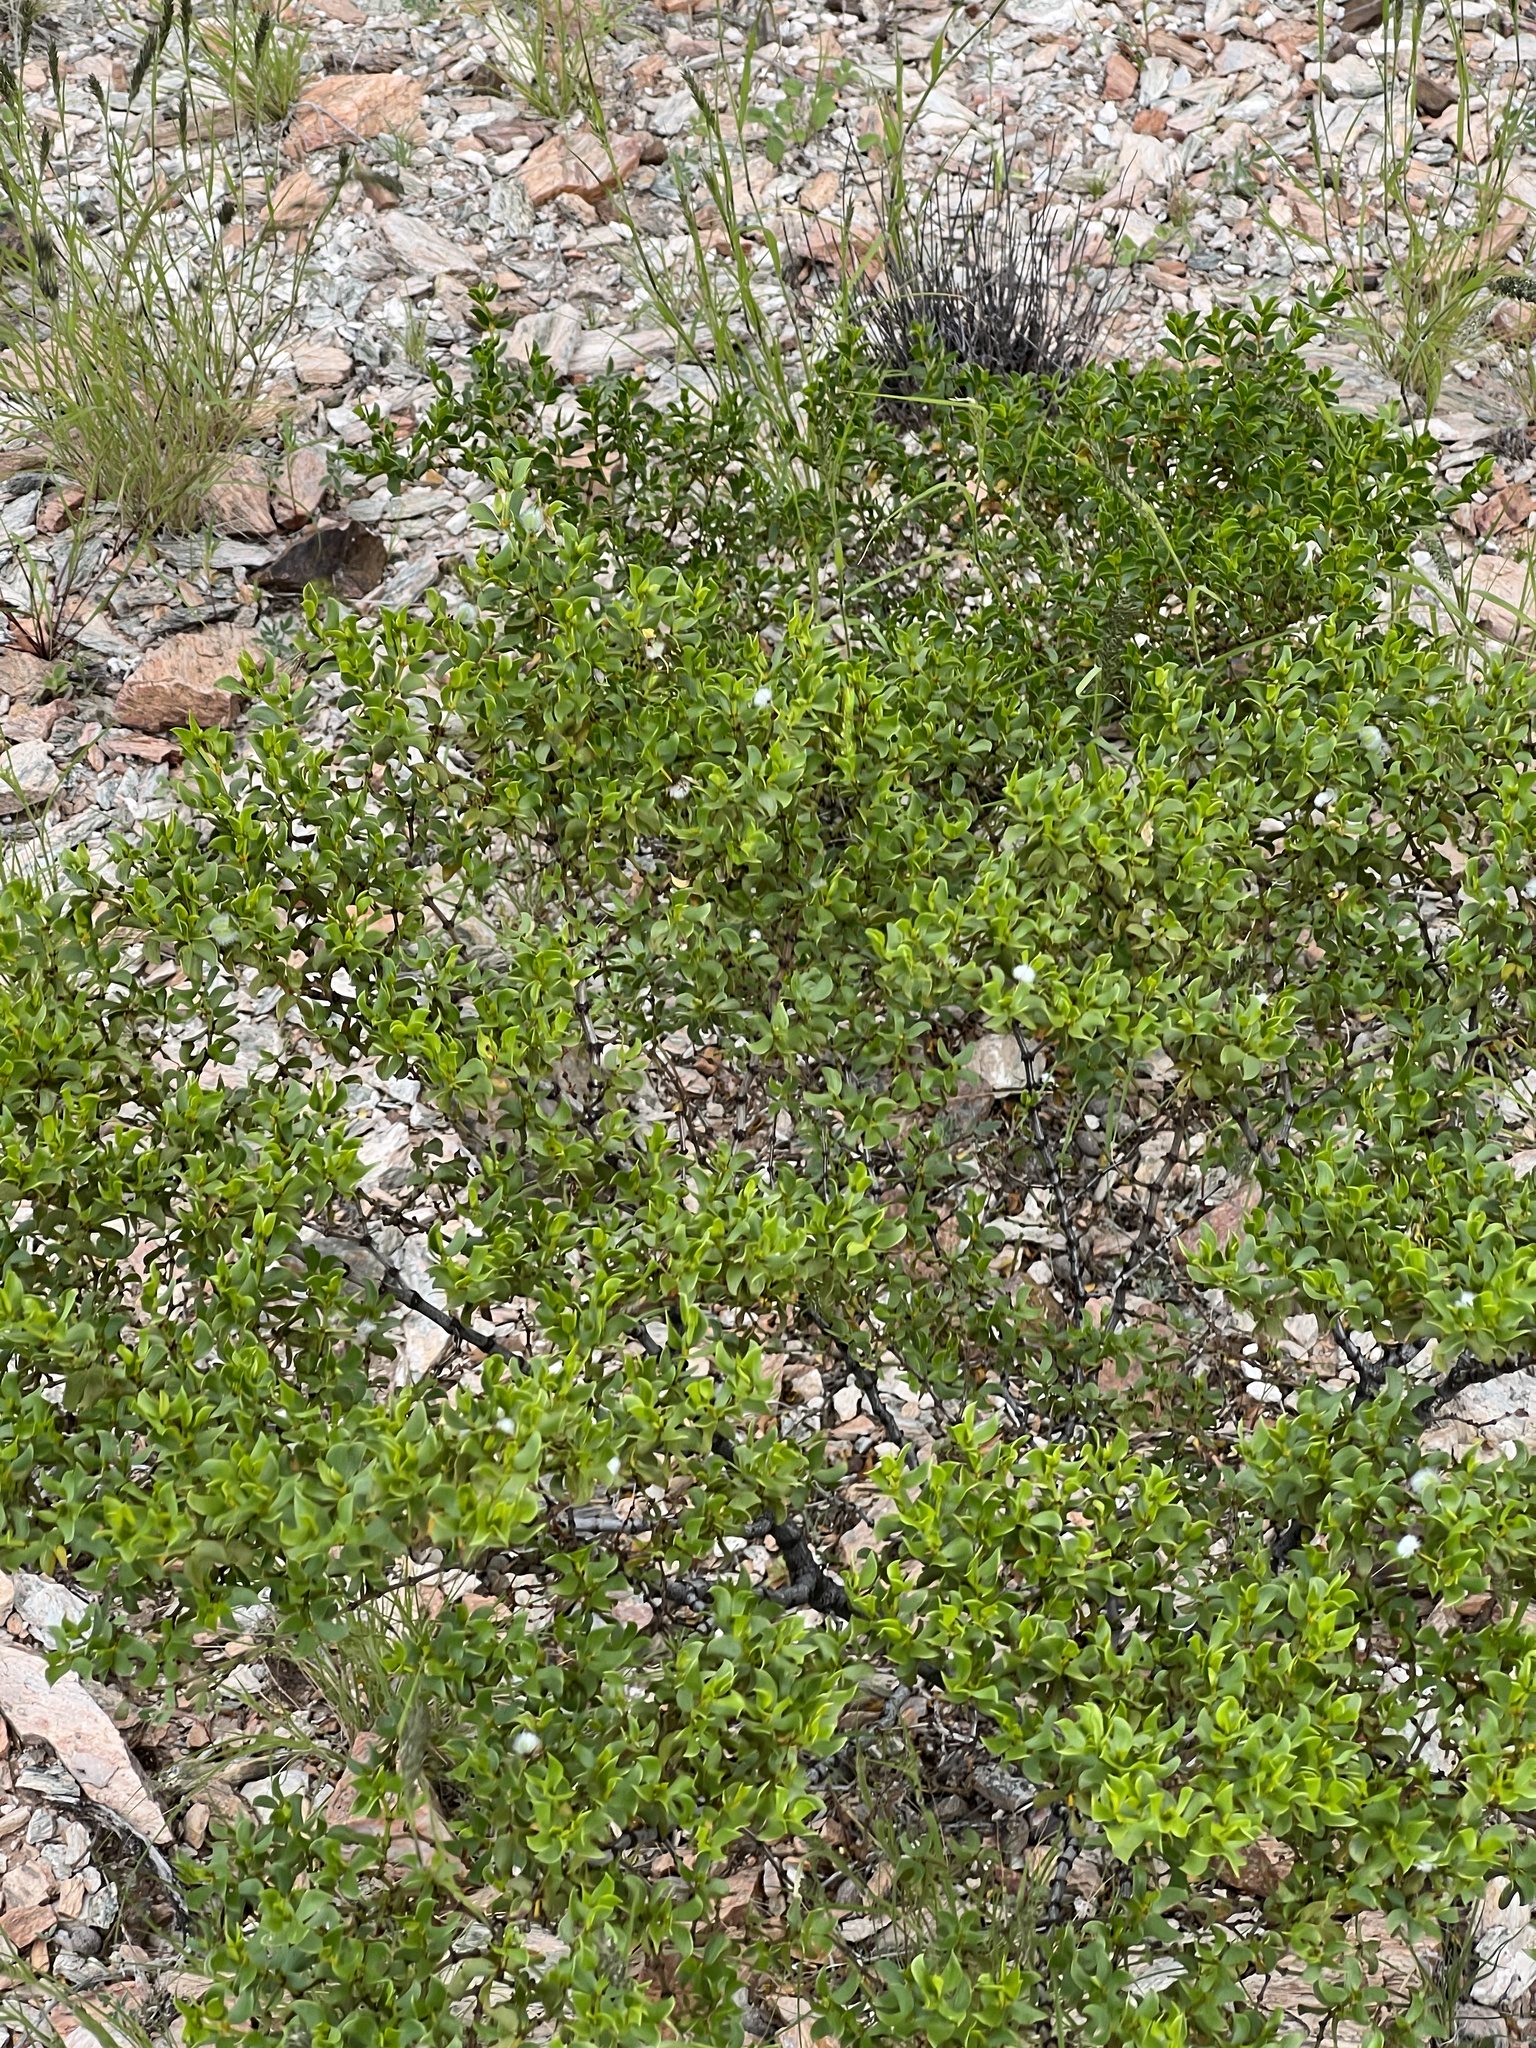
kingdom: Plantae
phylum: Tracheophyta
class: Magnoliopsida
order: Zygophyllales
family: Zygophyllaceae
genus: Larrea
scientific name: Larrea tridentata
